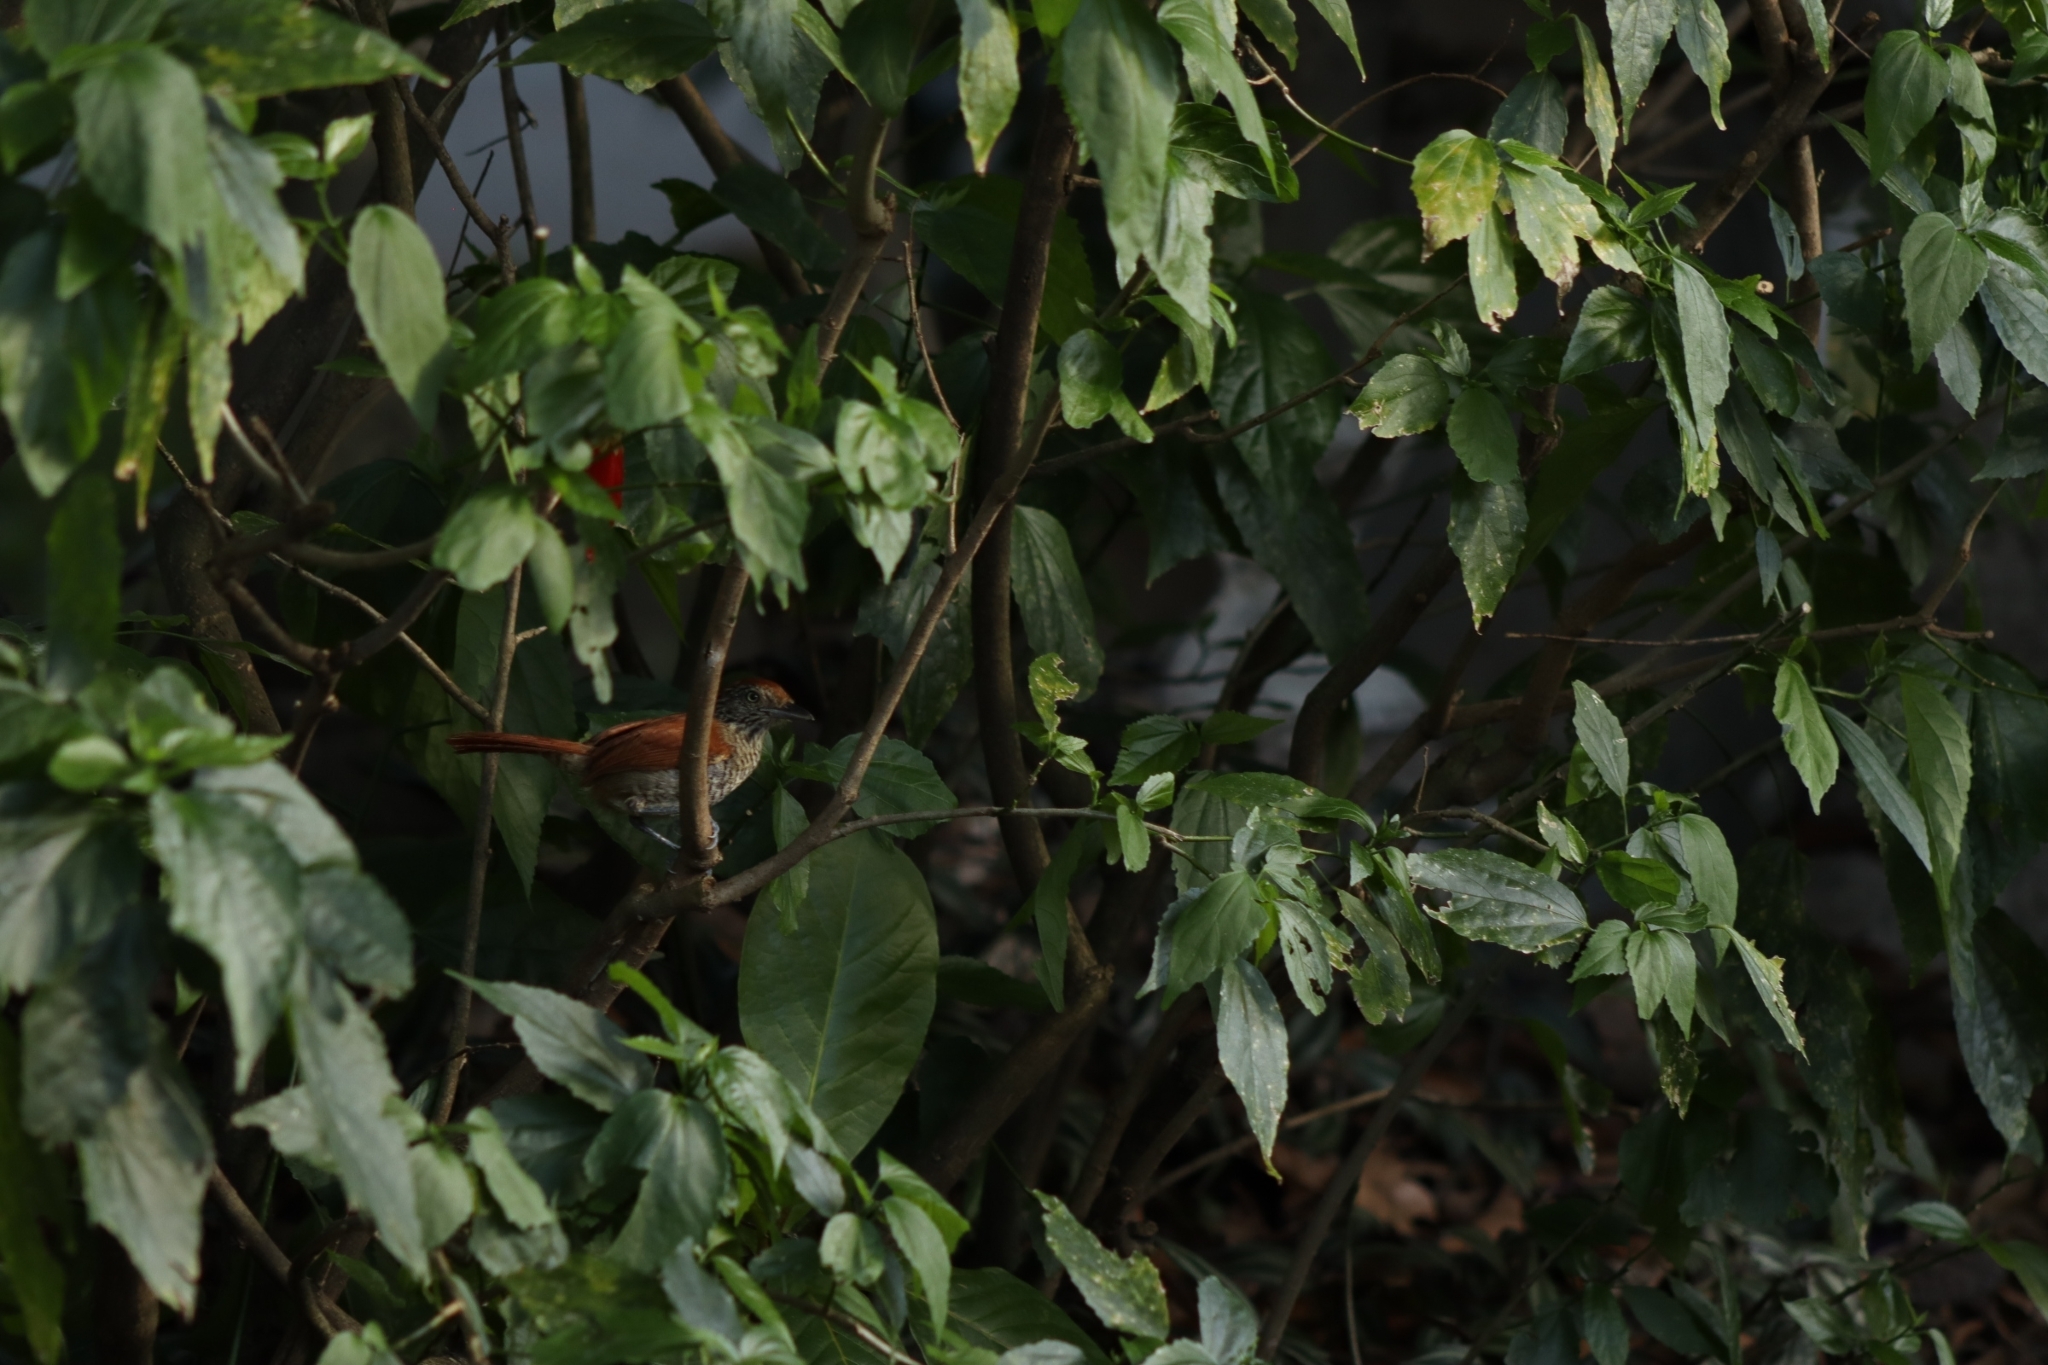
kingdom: Animalia
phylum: Chordata
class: Aves
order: Passeriformes
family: Thamnophilidae
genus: Thamnophilus
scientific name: Thamnophilus multistriatus
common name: Bar-crested antshrike
